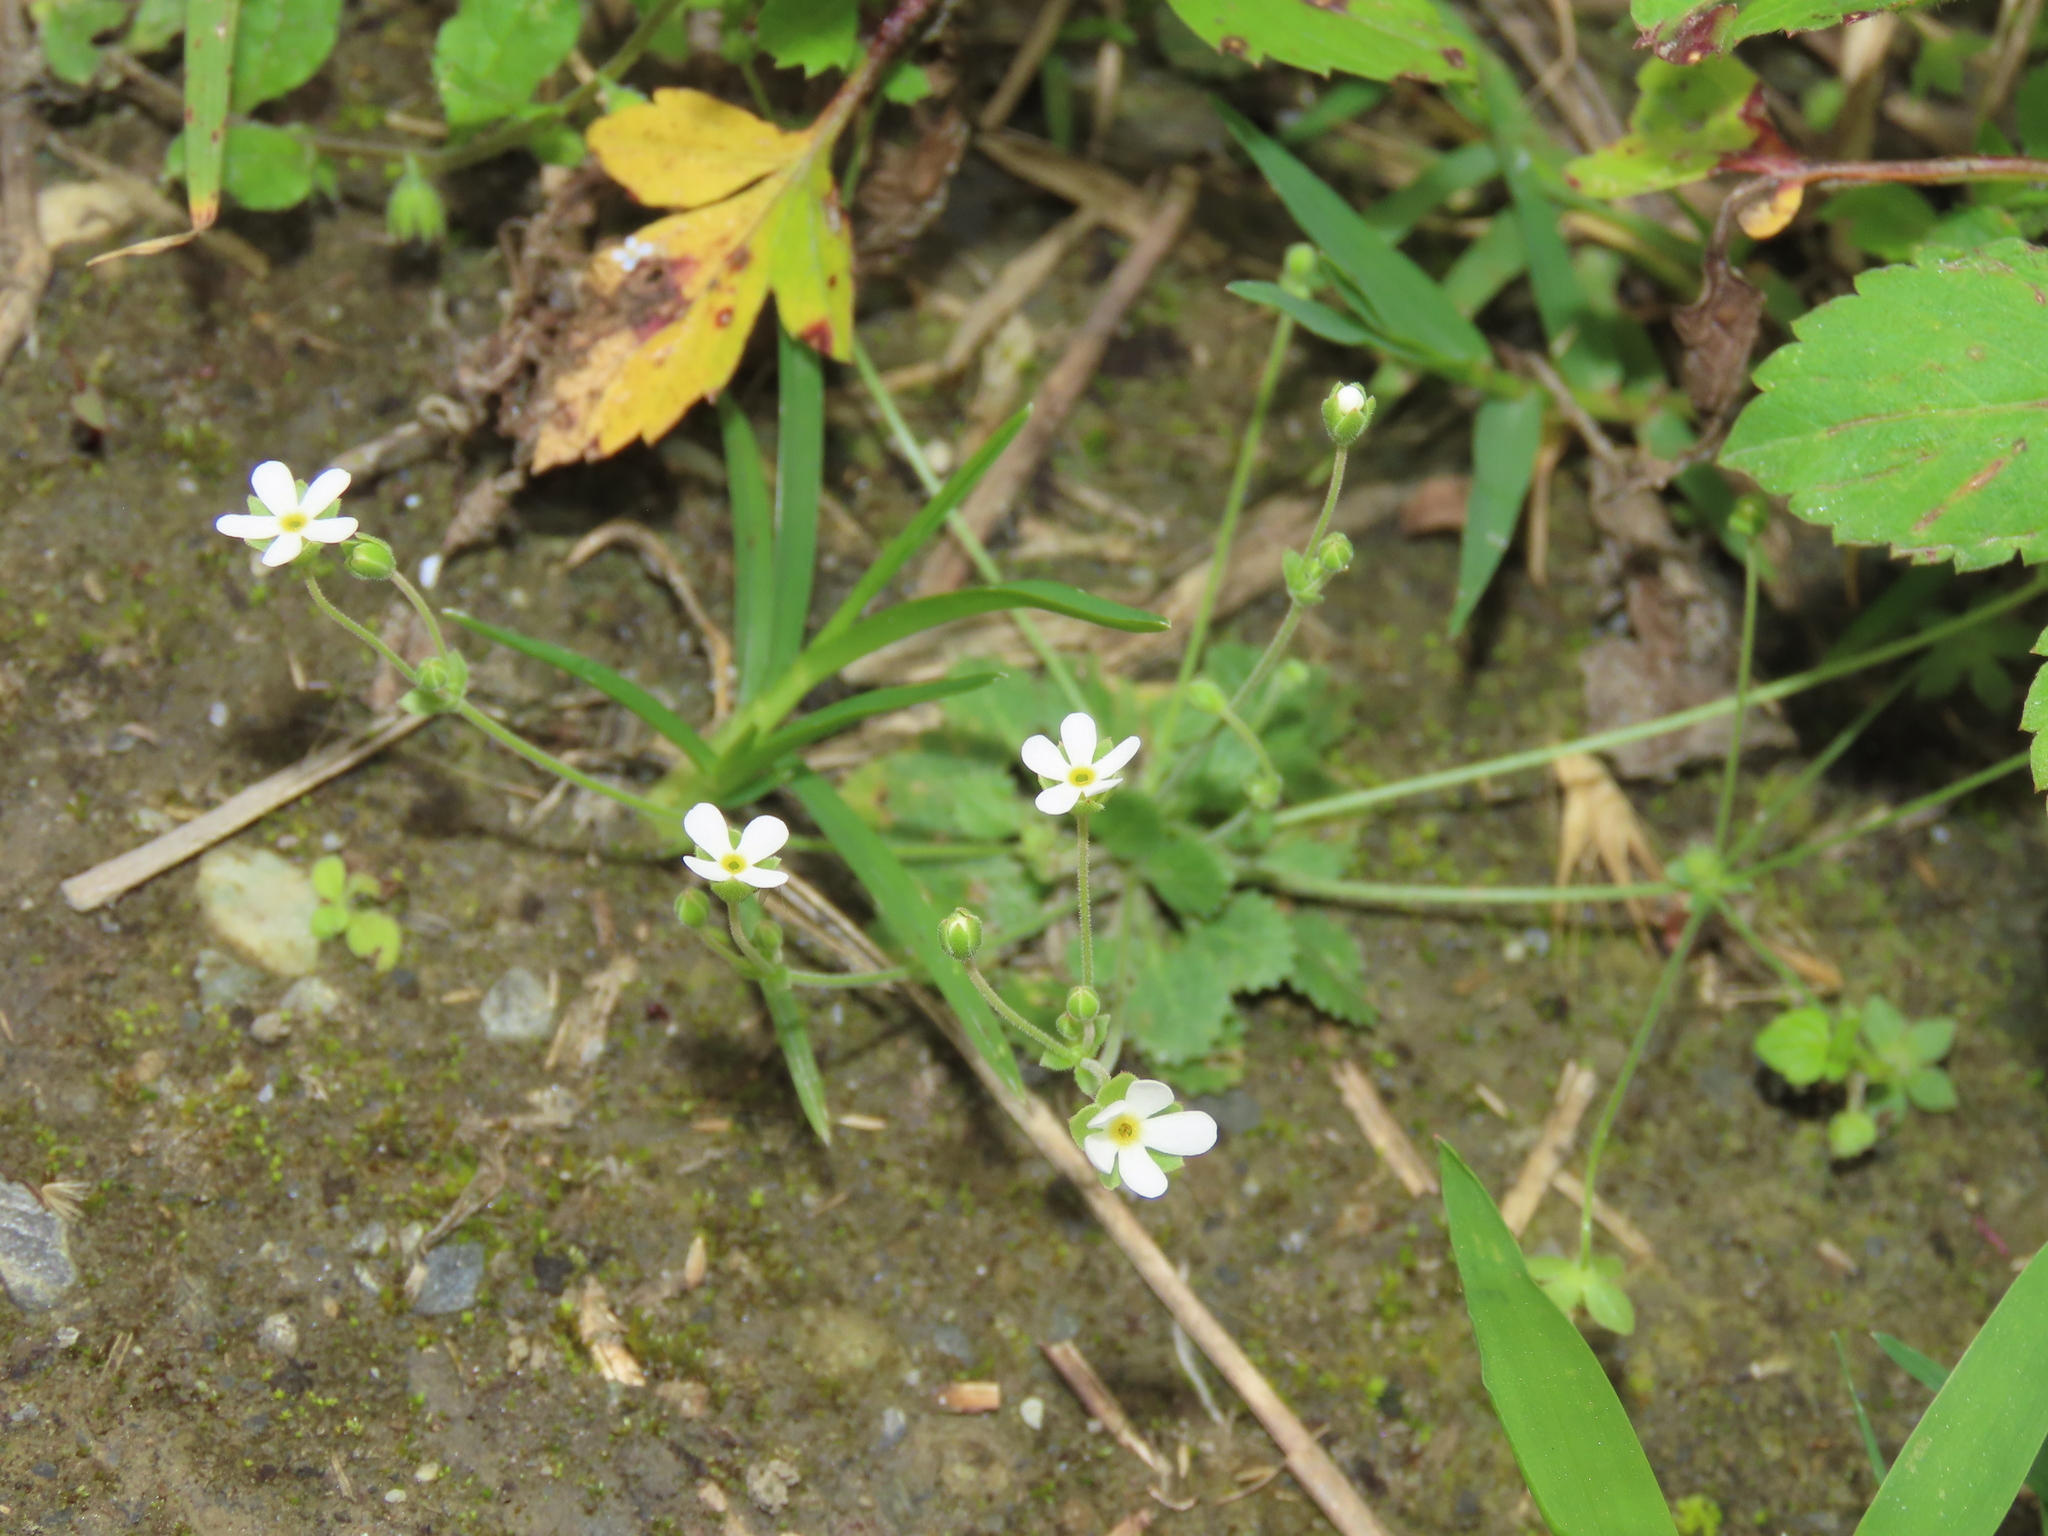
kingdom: Plantae
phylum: Tracheophyta
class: Magnoliopsida
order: Ericales
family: Primulaceae
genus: Androsace
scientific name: Androsace umbellata
